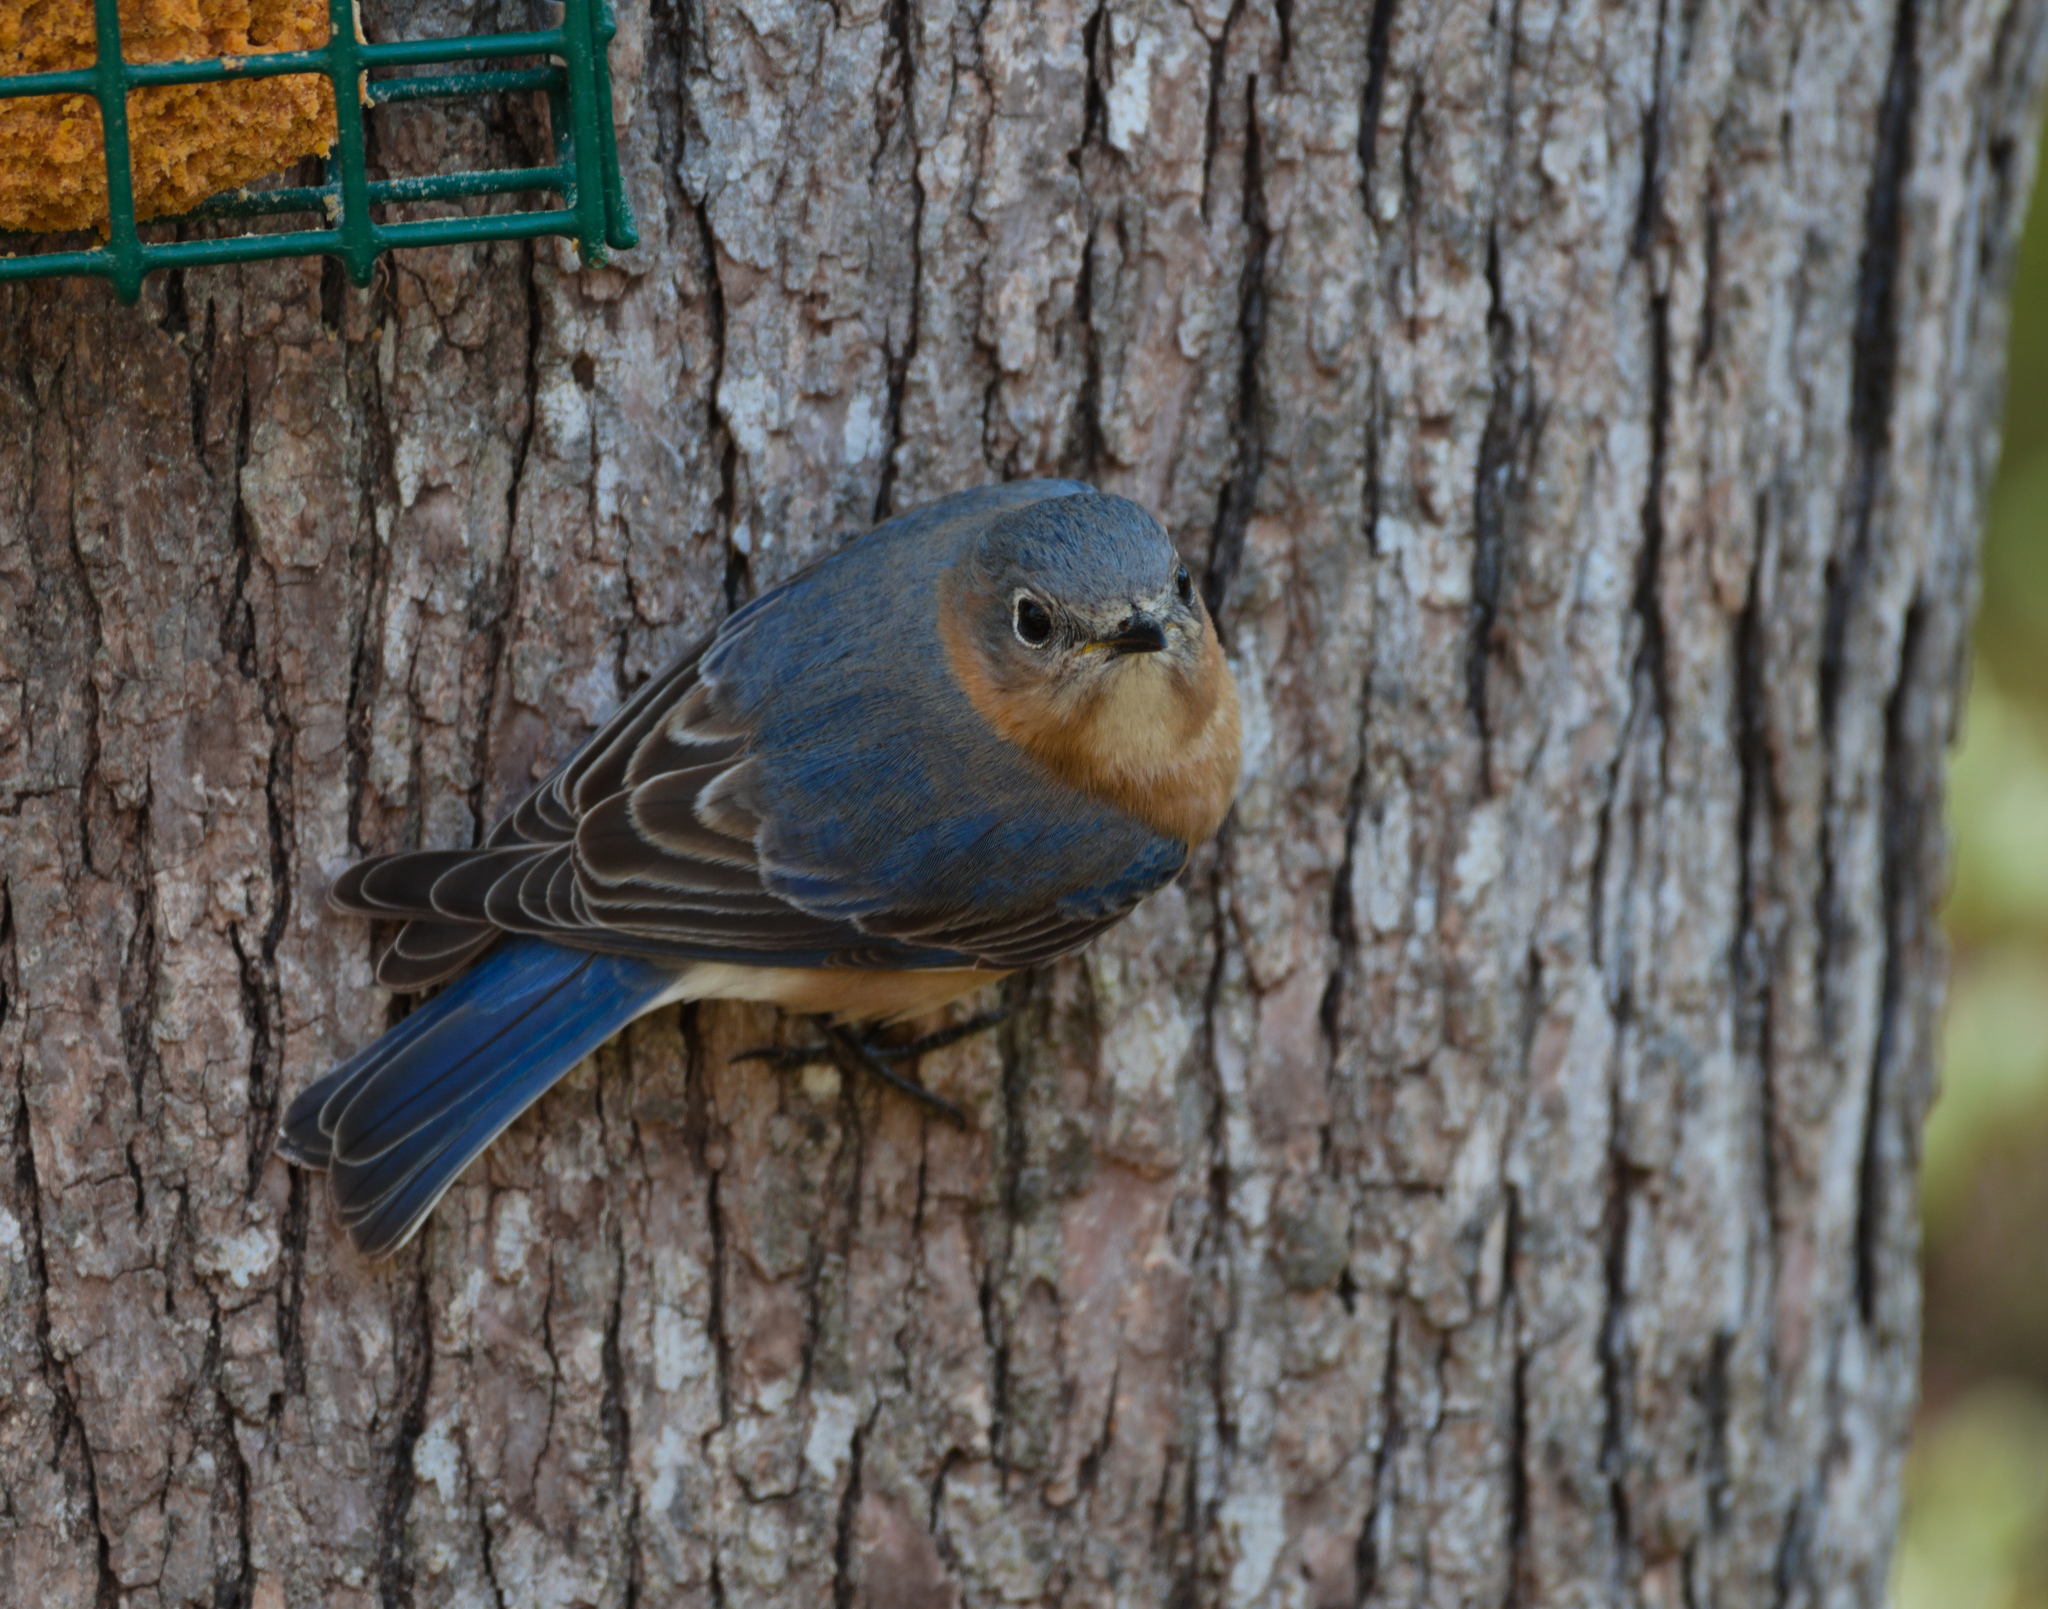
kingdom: Animalia
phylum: Chordata
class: Aves
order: Passeriformes
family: Turdidae
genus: Sialia
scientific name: Sialia sialis
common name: Eastern bluebird
